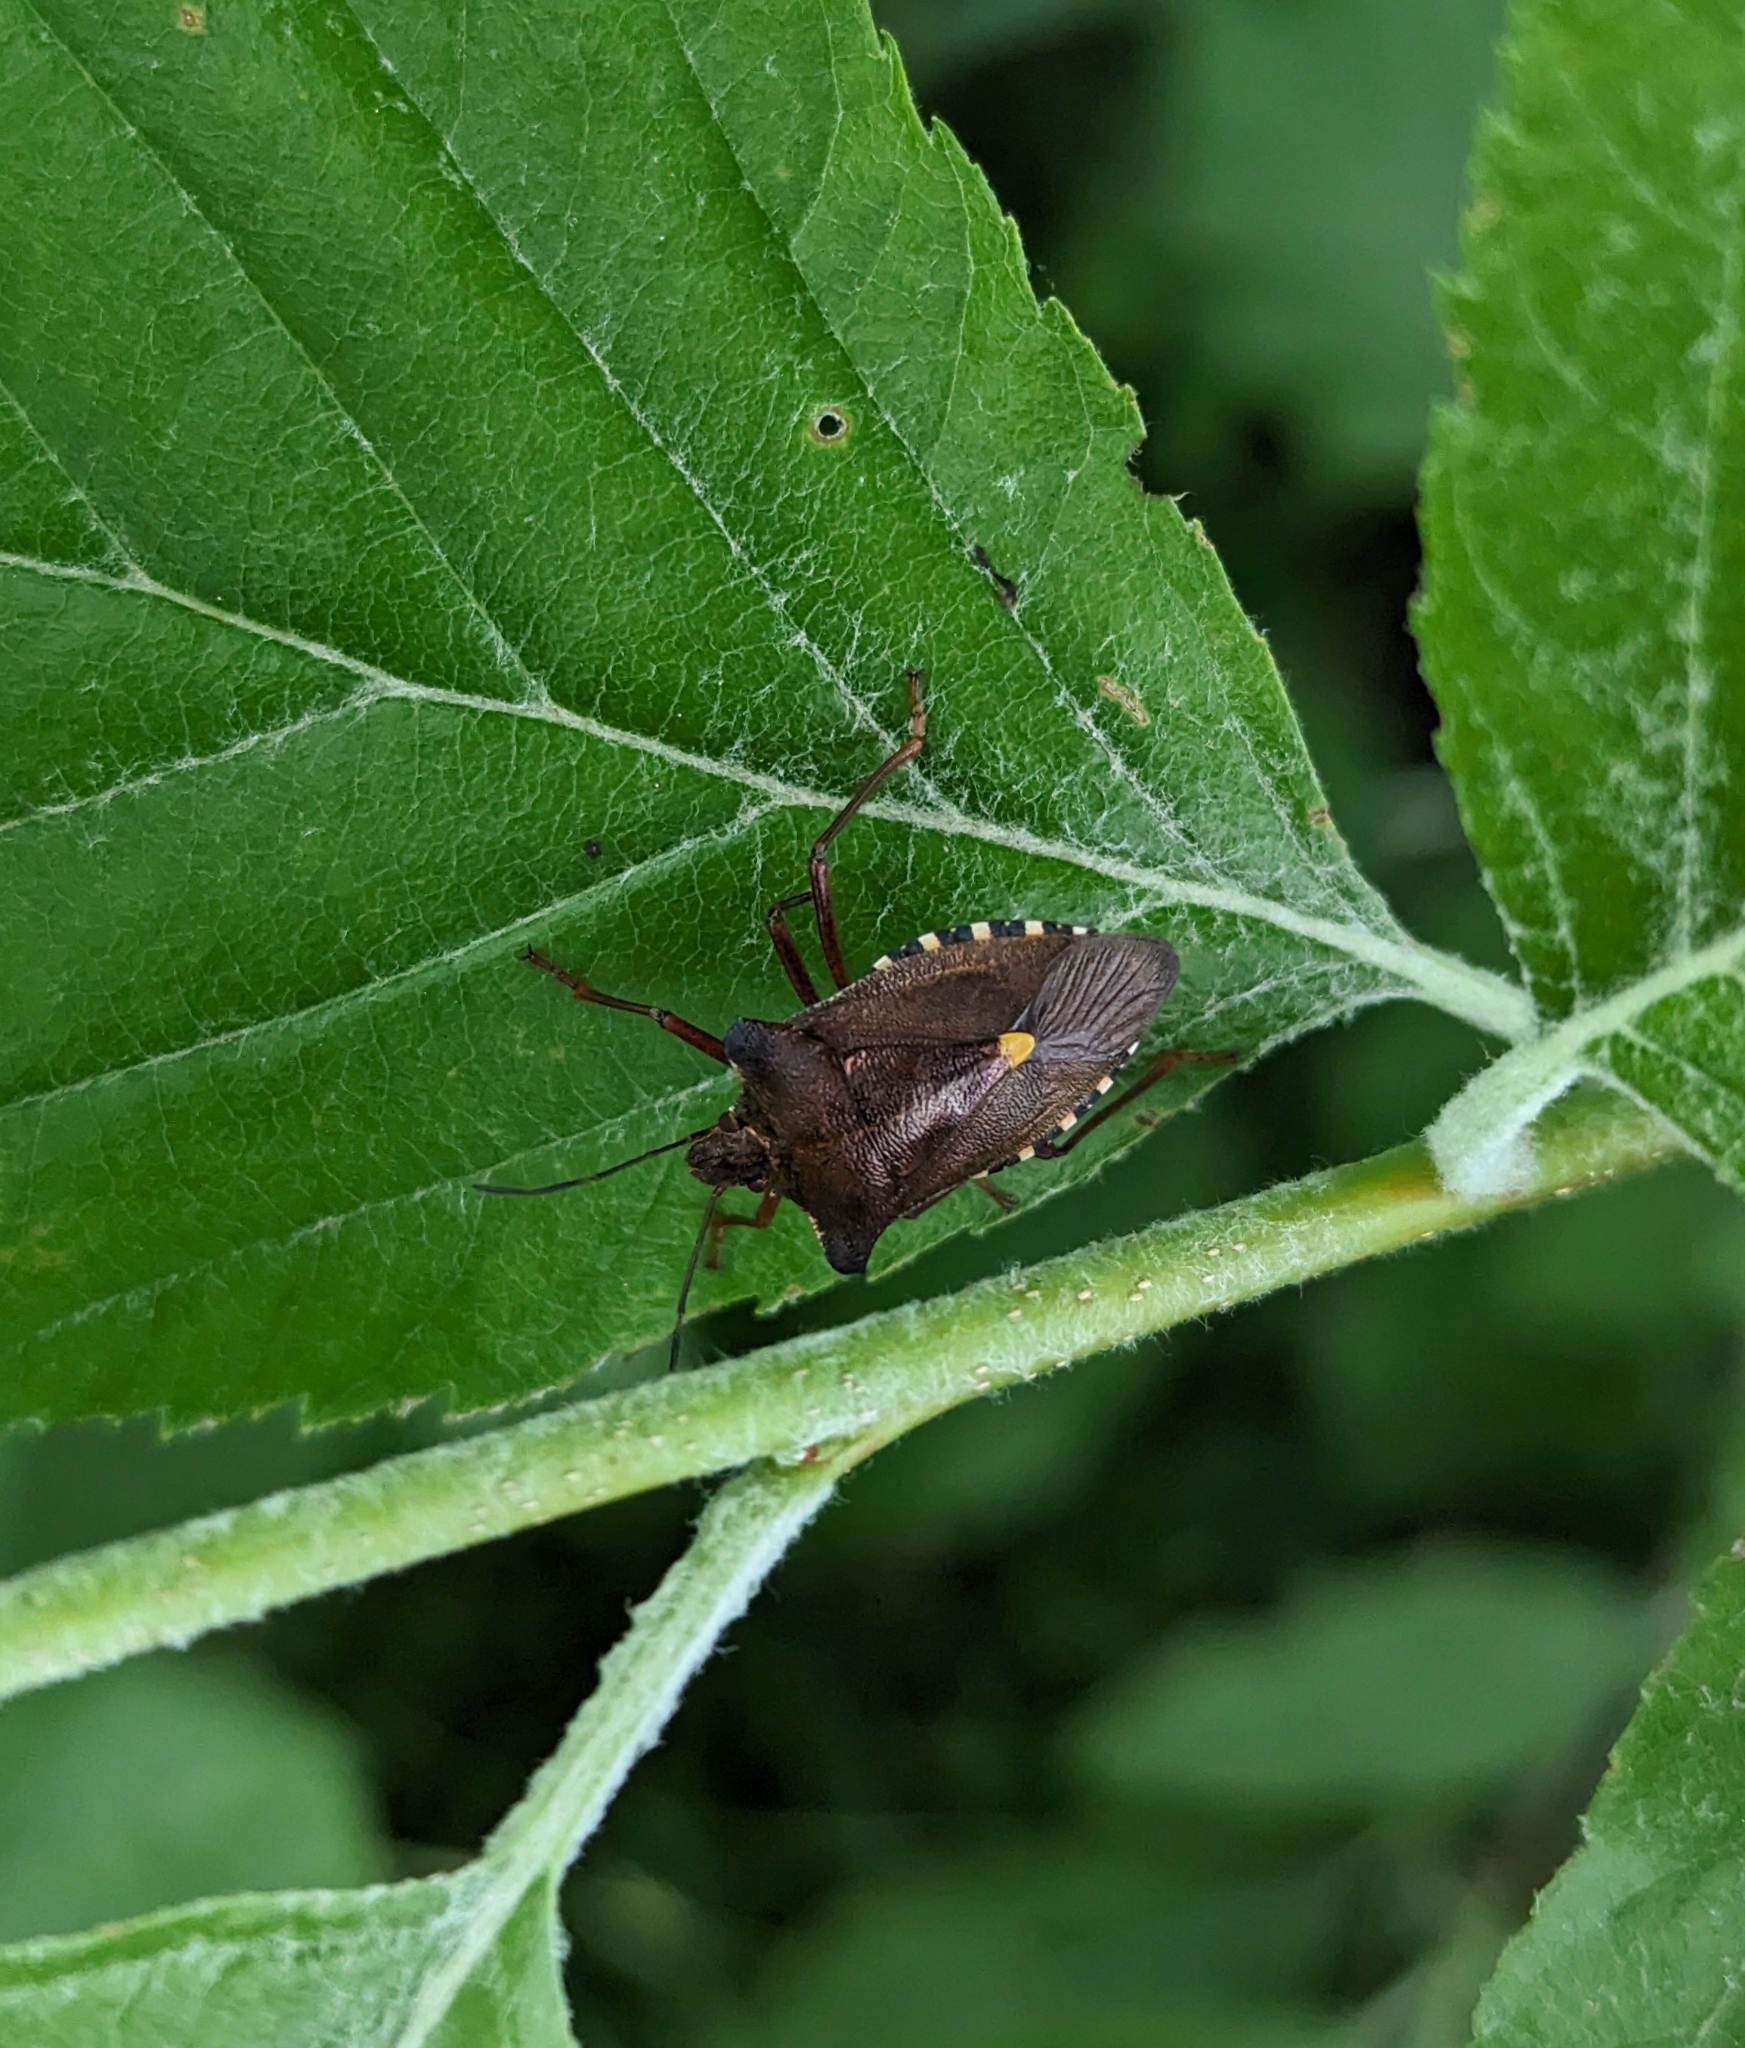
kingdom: Animalia
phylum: Arthropoda
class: Insecta
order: Hemiptera
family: Pentatomidae
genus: Pentatoma
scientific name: Pentatoma rufipes
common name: Forest bug
